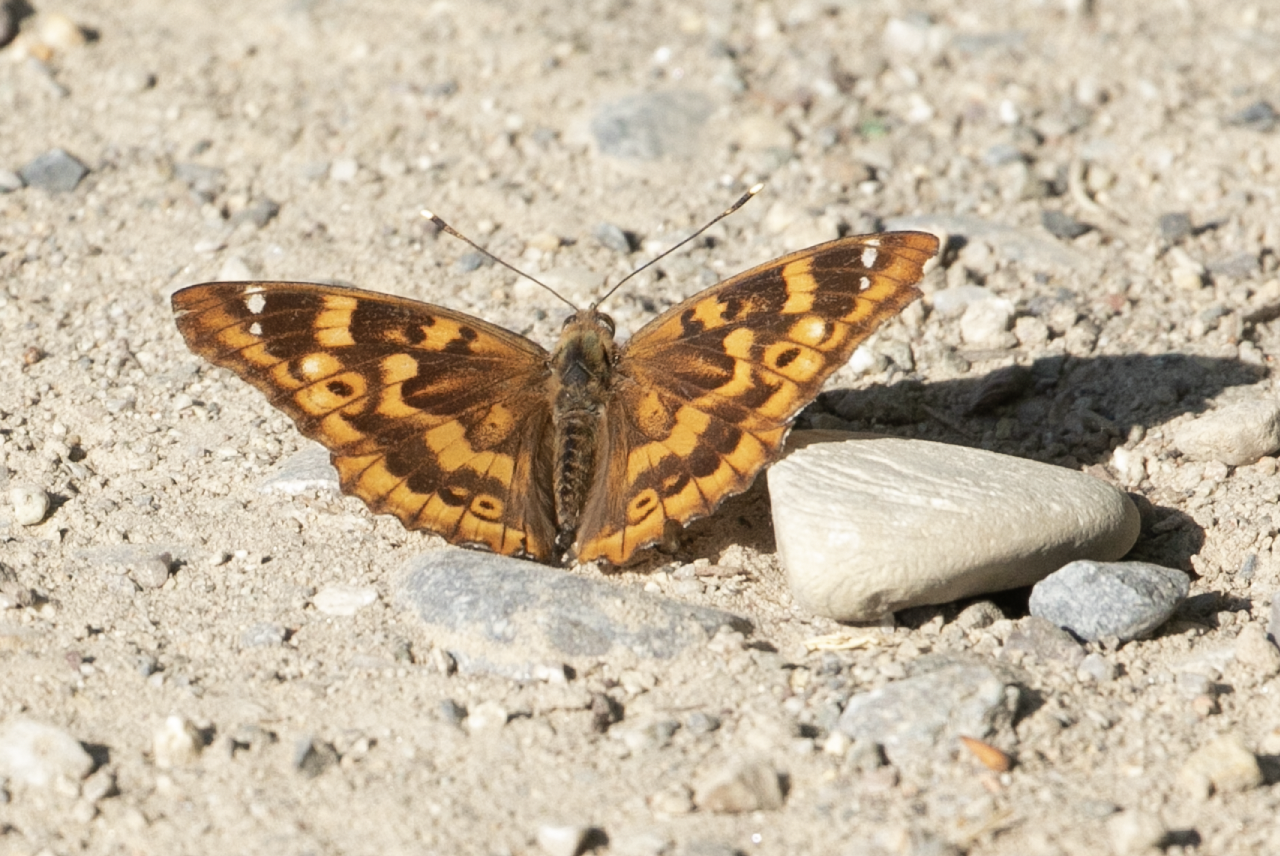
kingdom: Animalia
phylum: Arthropoda
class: Insecta
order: Lepidoptera
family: Nymphalidae
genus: Apatura
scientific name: Apatura ilia
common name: Lesser purple emperor
